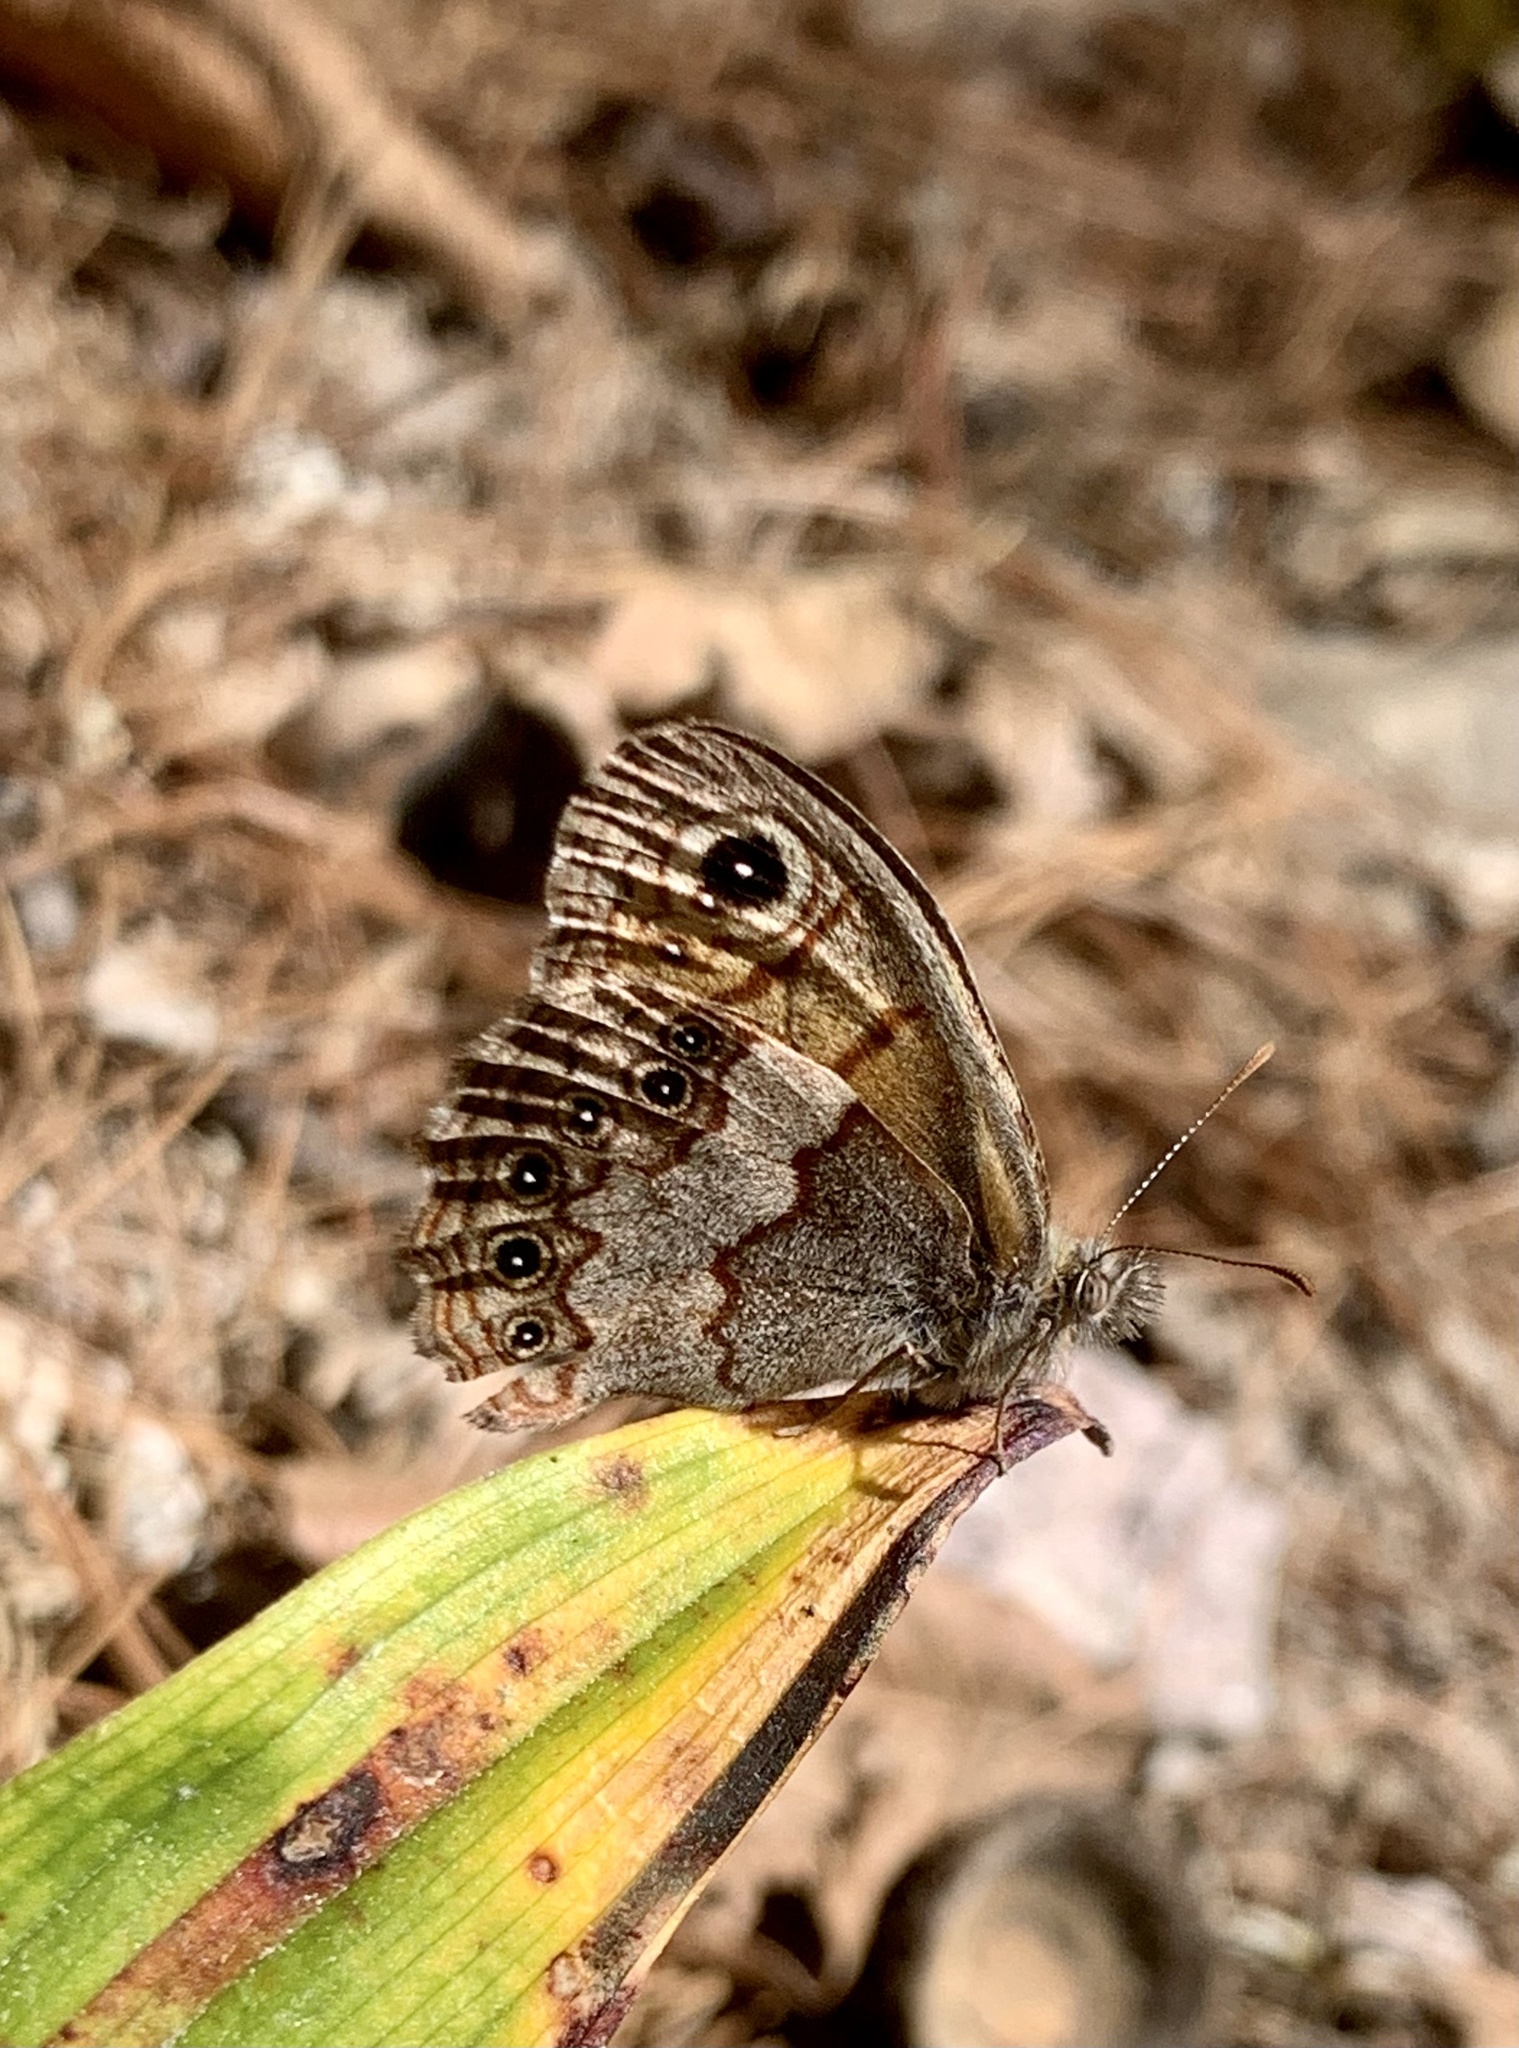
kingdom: Animalia
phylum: Arthropoda
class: Insecta
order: Lepidoptera
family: Nymphalidae
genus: Paramecera
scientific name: Paramecera xicaque
